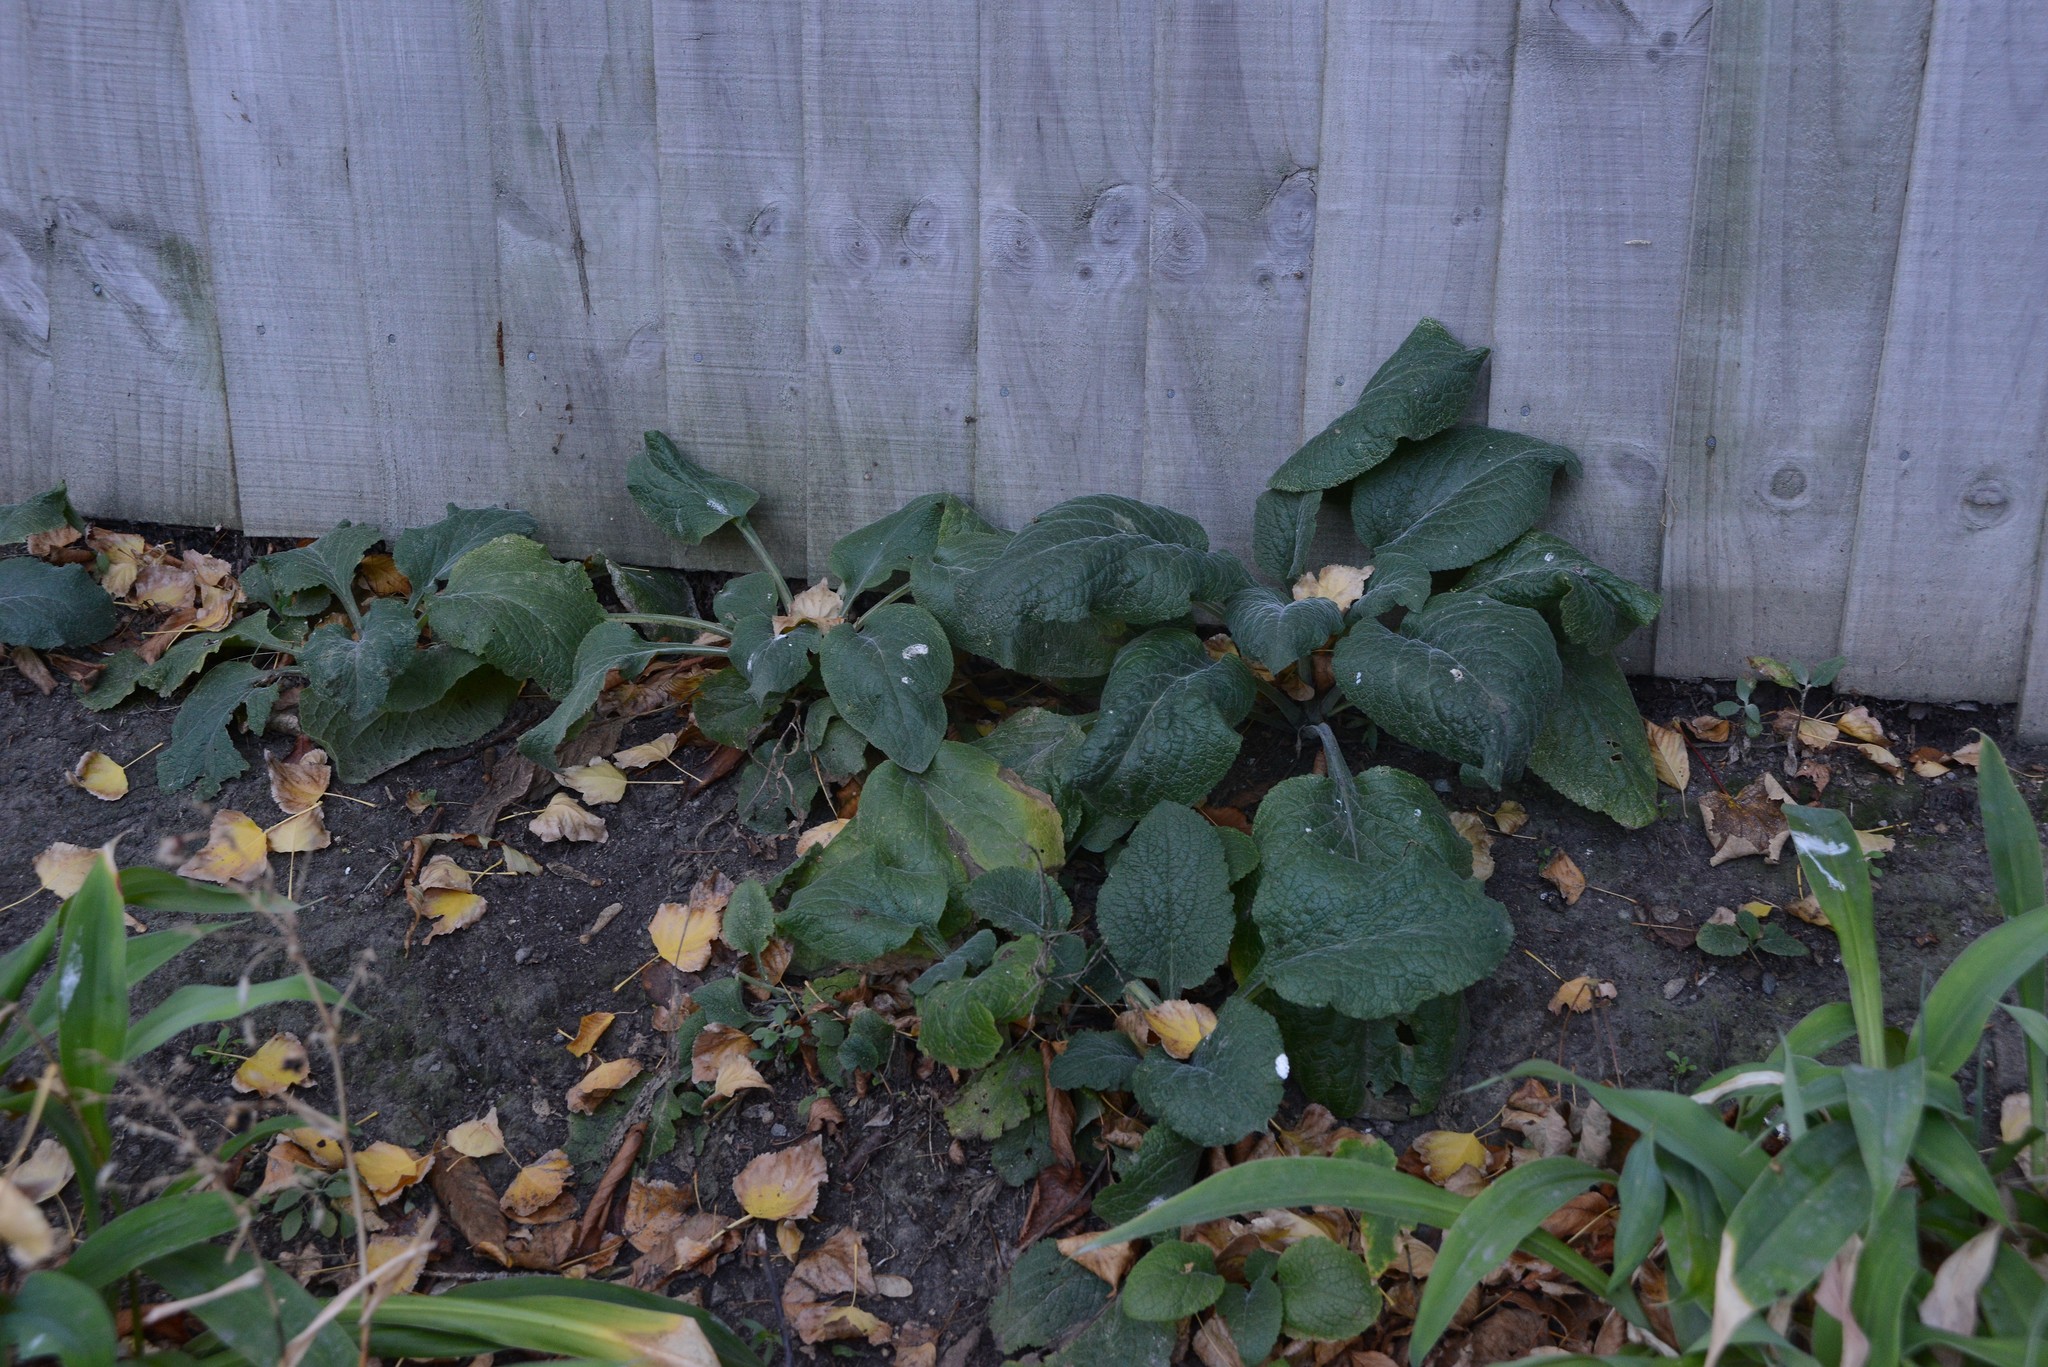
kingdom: Plantae
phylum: Tracheophyta
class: Magnoliopsida
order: Lamiales
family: Plantaginaceae
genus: Digitalis
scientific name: Digitalis purpurea
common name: Foxglove
